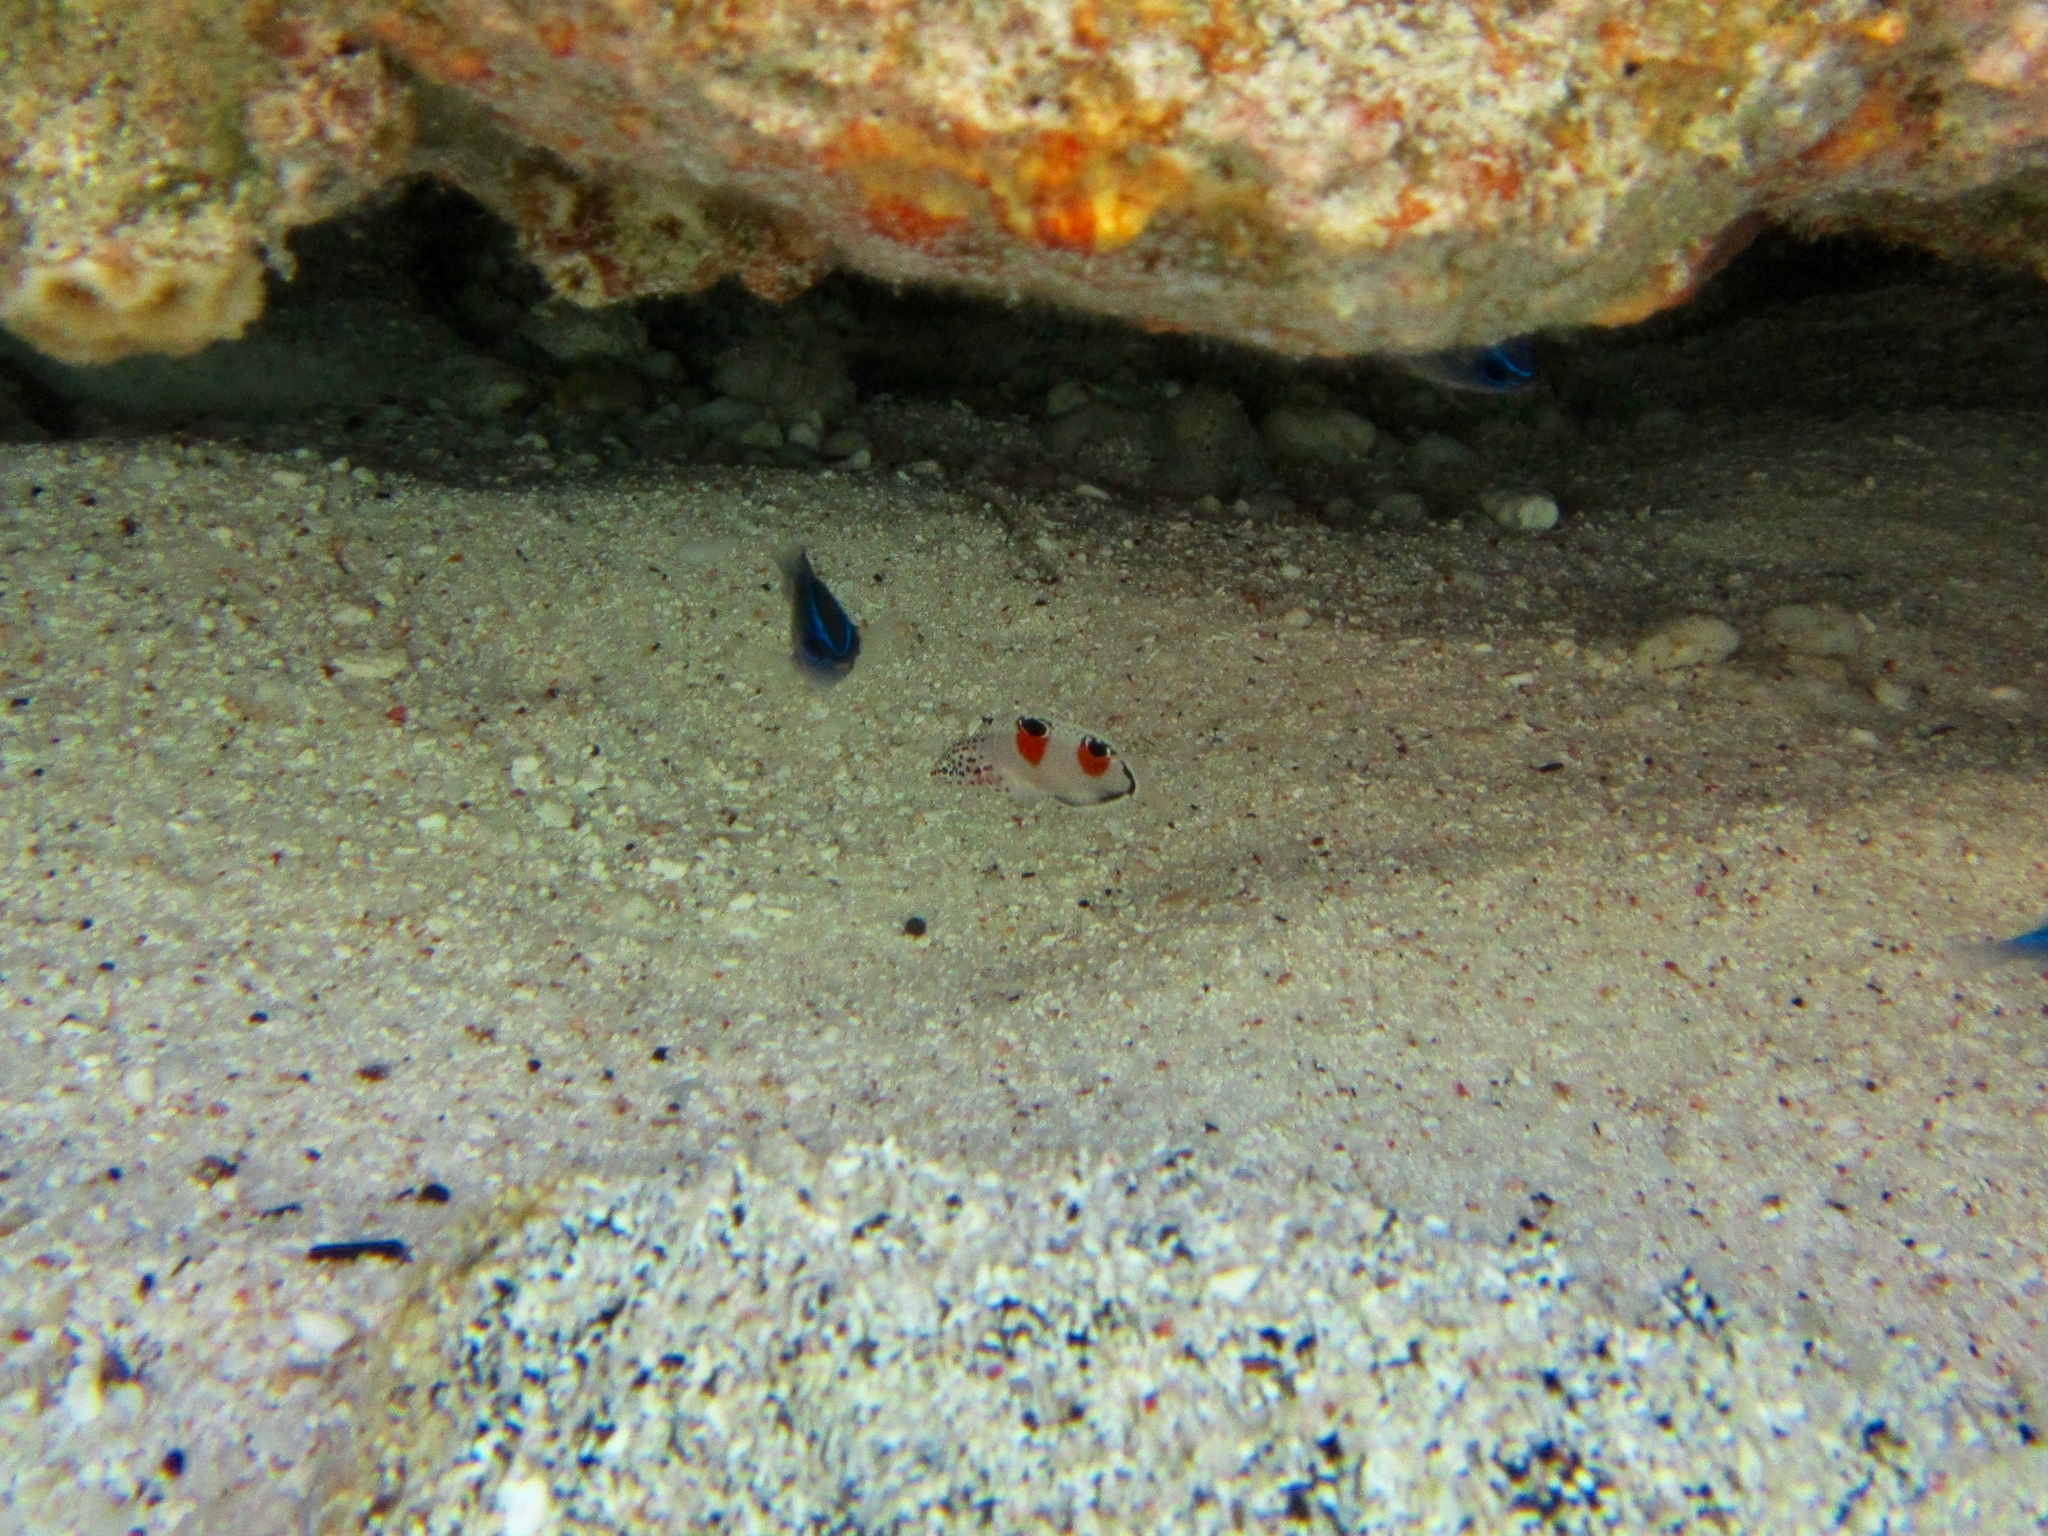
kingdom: Animalia
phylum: Chordata
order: Perciformes
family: Labridae
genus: Coris
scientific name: Coris aygula
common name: Clown coris
